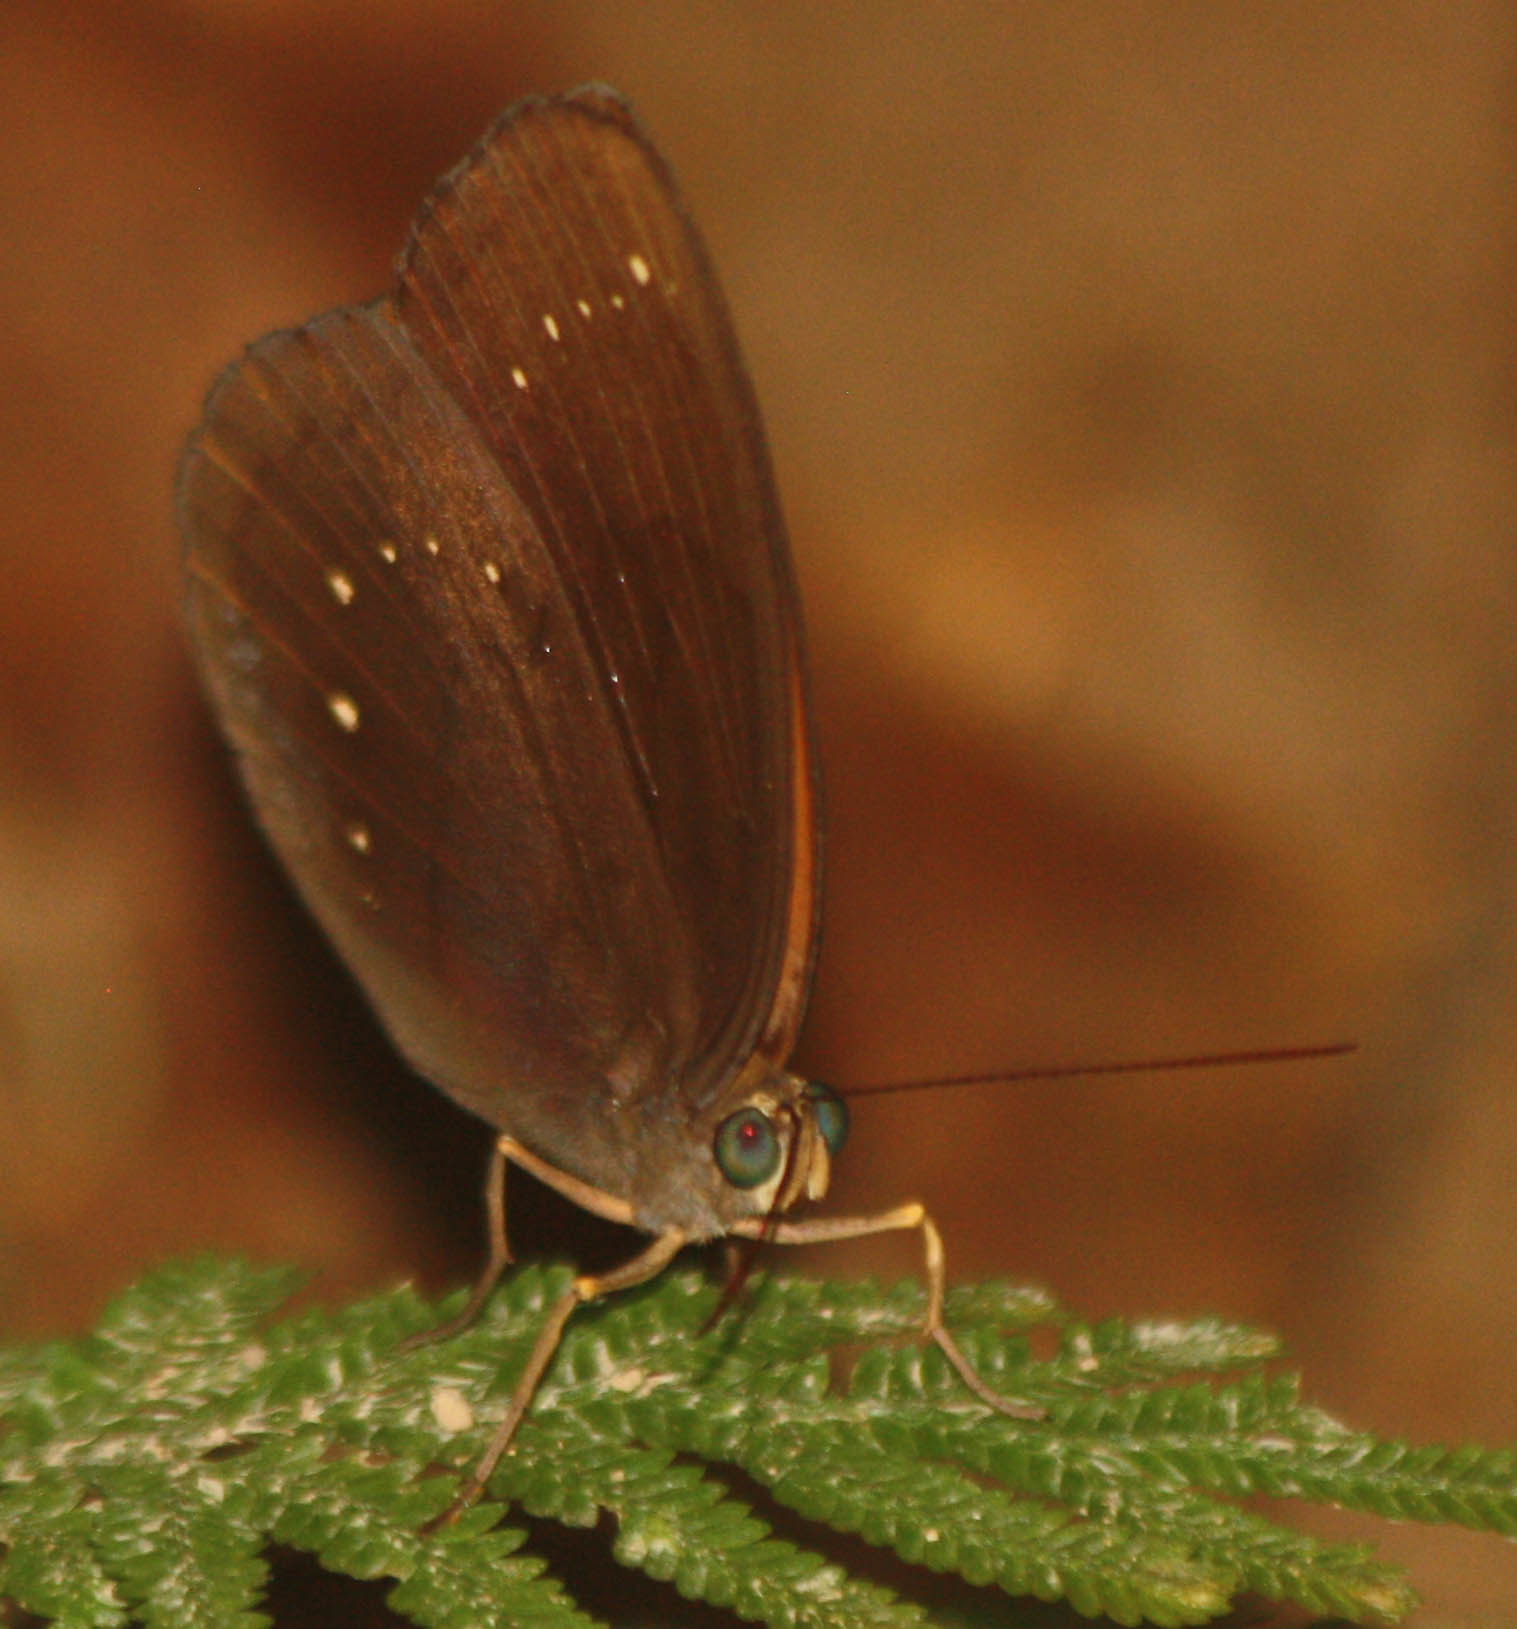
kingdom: Animalia
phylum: Arthropoda
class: Insecta
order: Lepidoptera
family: Nymphalidae
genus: Faunis
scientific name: Faunis canens
